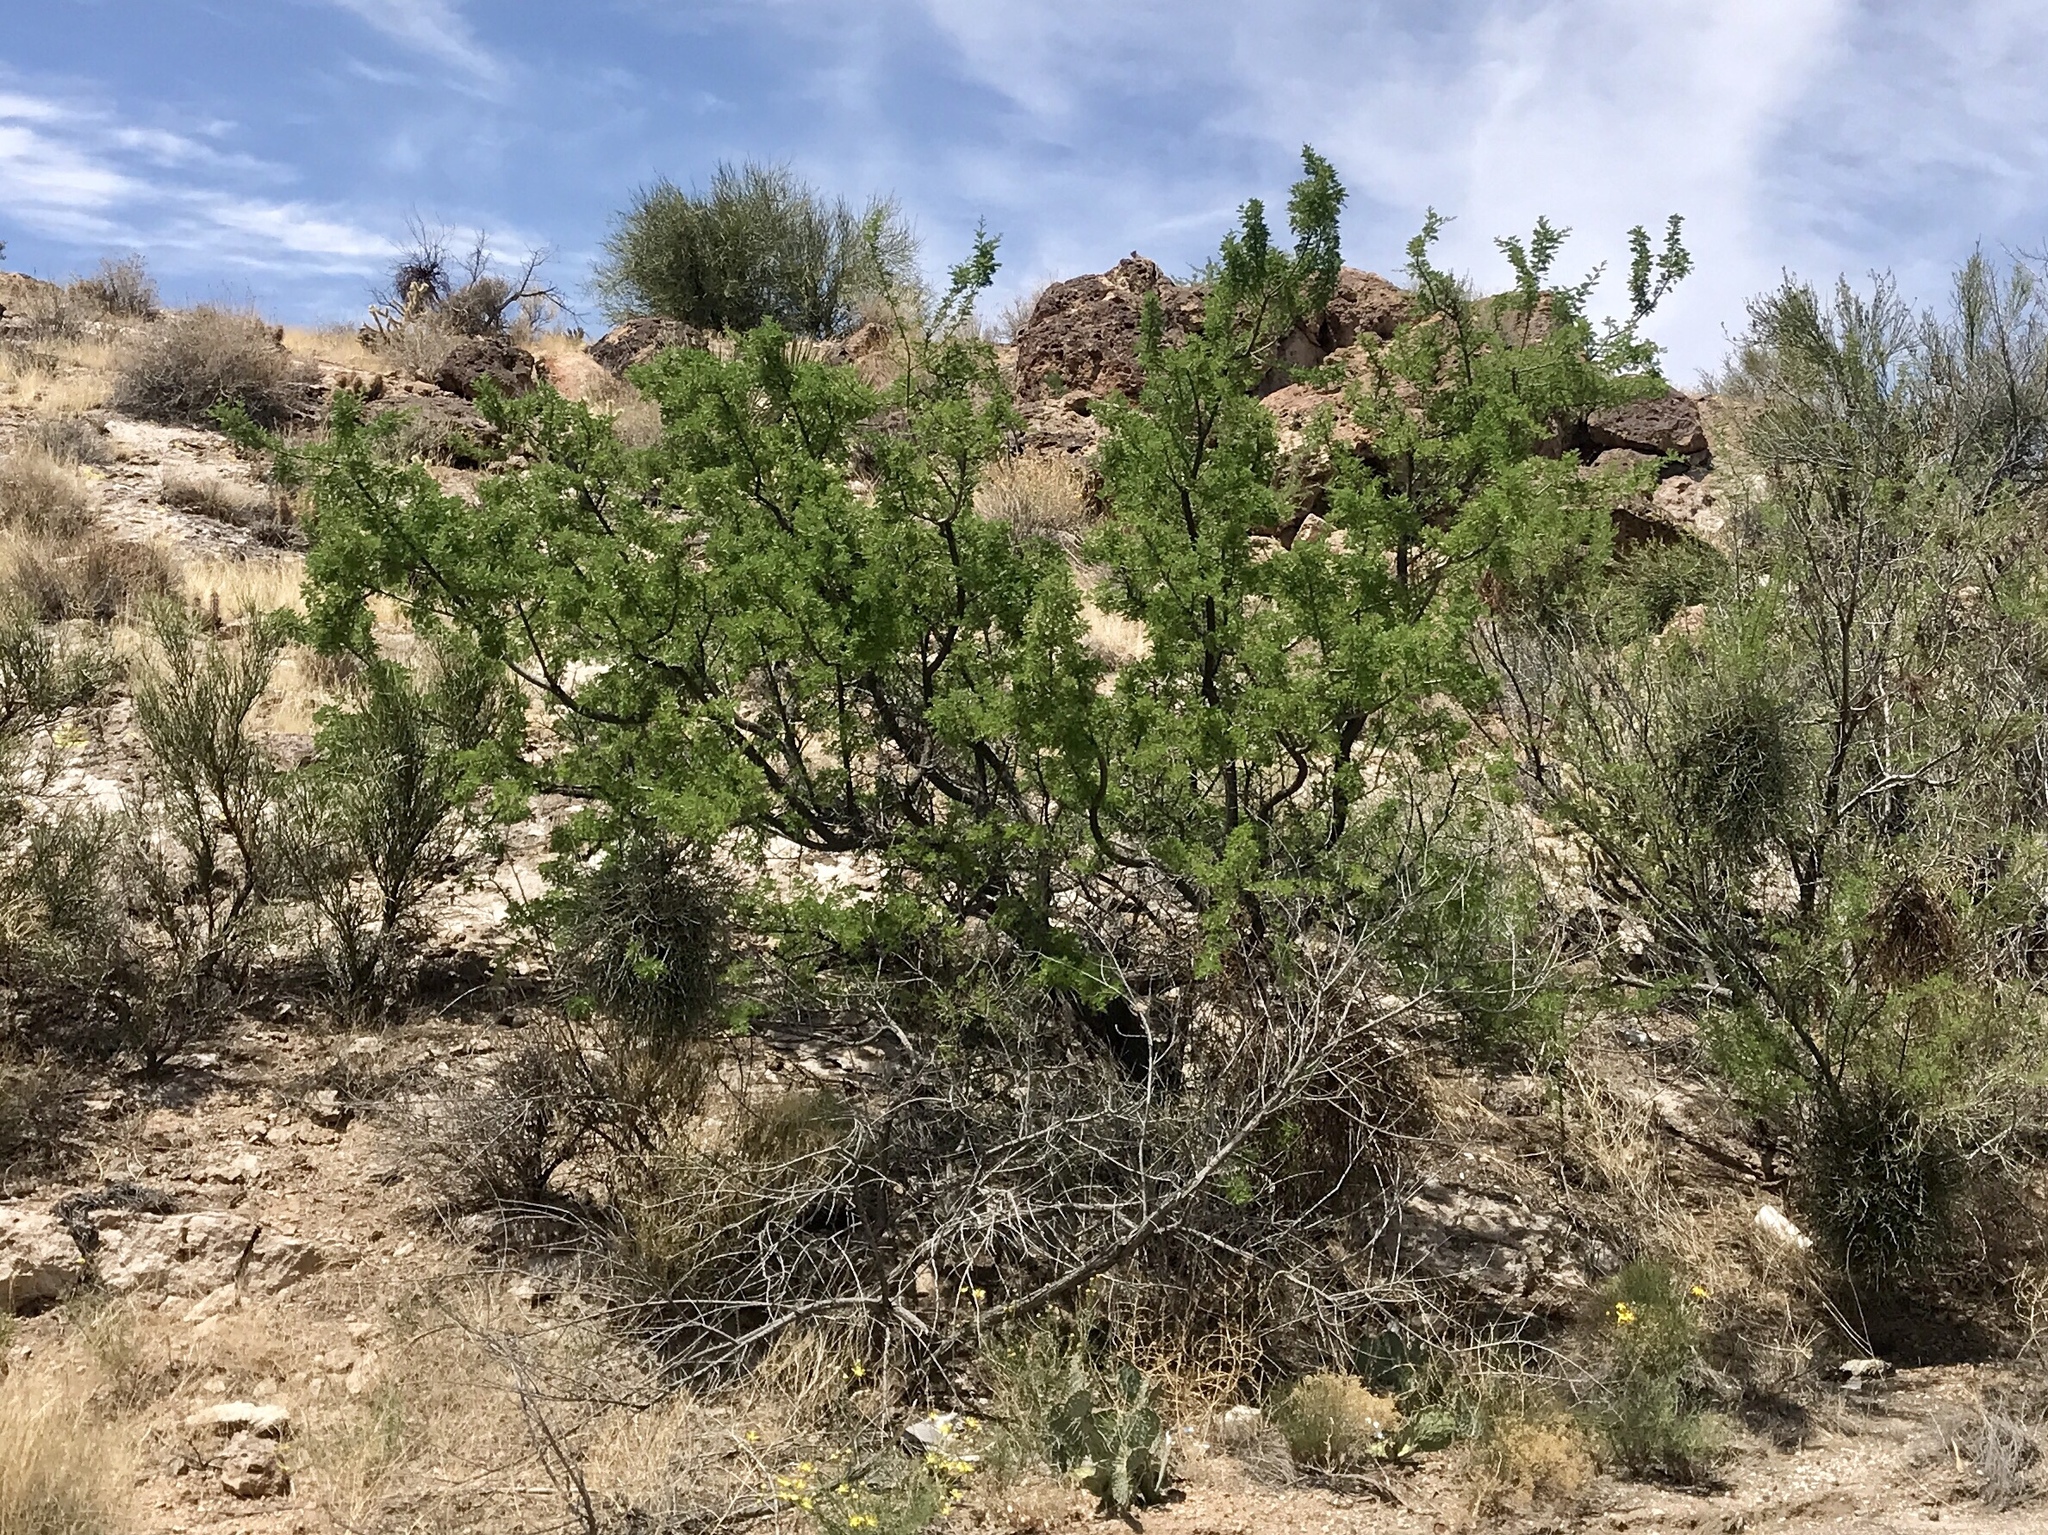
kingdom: Plantae
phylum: Tracheophyta
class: Magnoliopsida
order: Fabales
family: Fabaceae
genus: Senegalia
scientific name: Senegalia greggii
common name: Texas-mimosa
